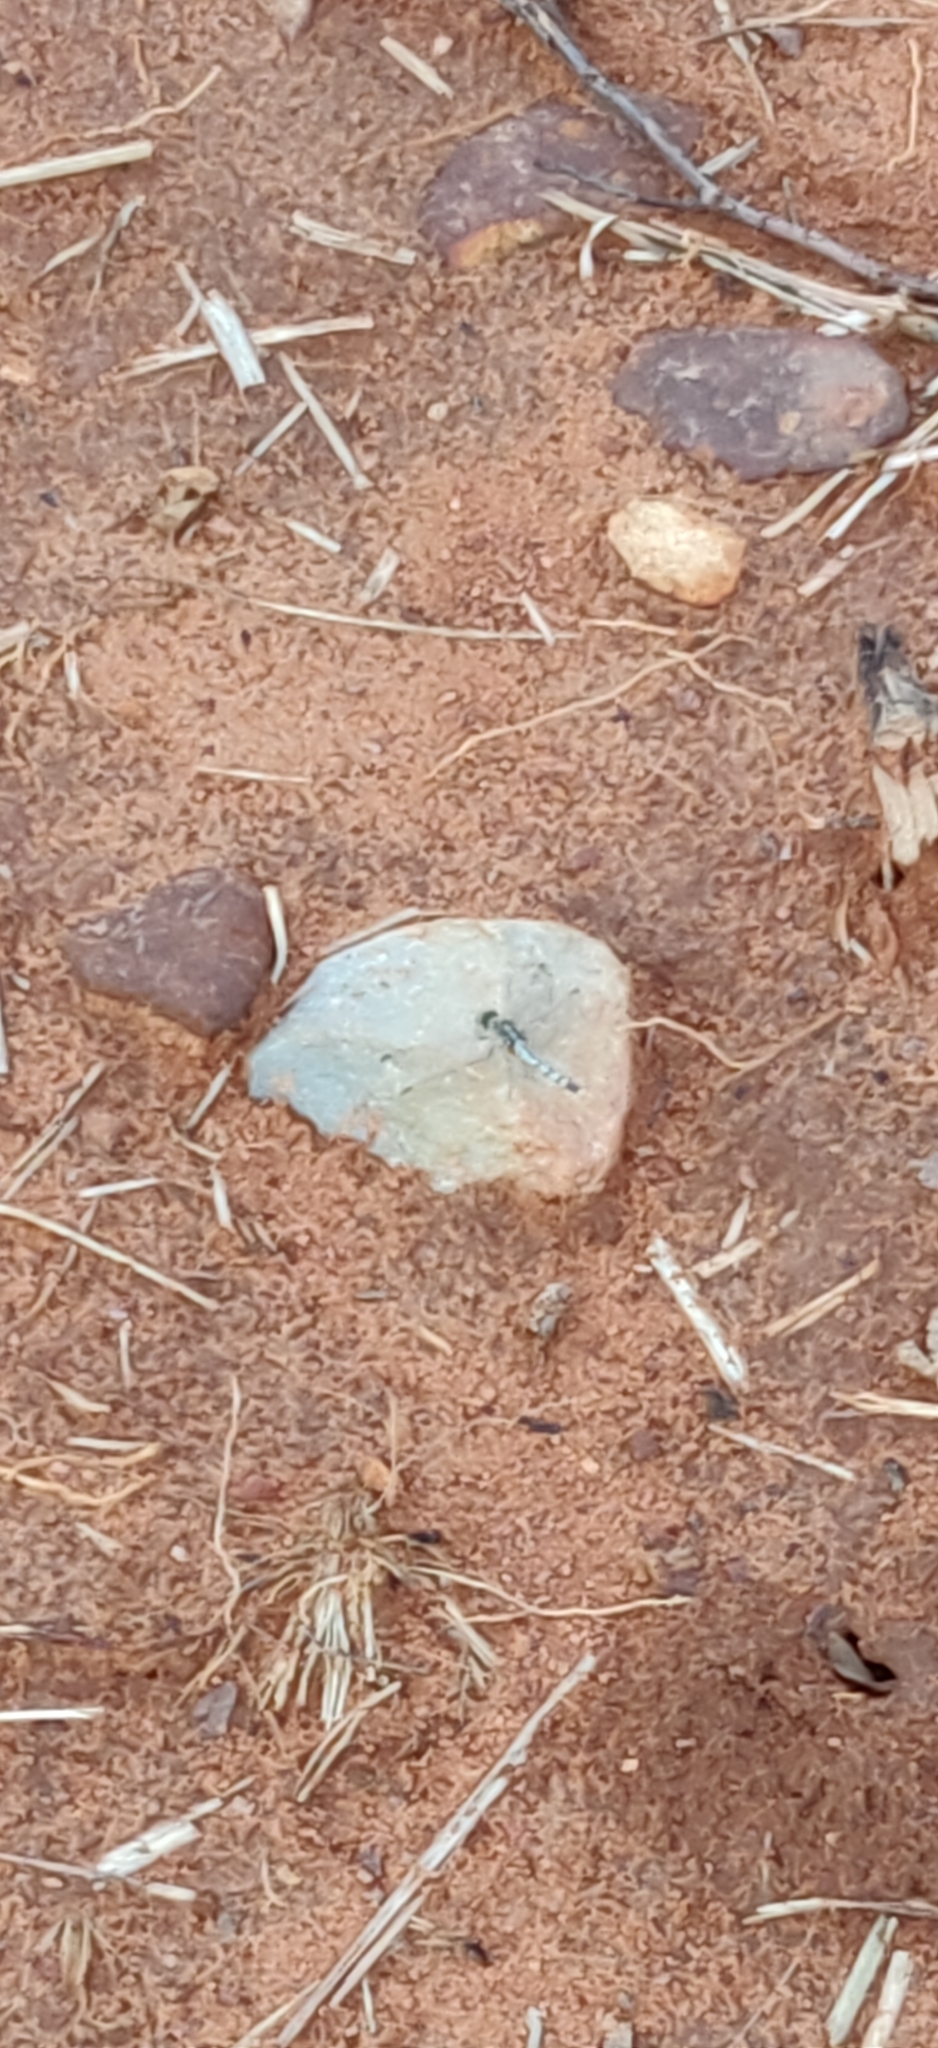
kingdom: Animalia
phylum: Arthropoda
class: Insecta
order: Odonata
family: Libellulidae
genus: Diplacodes
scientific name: Diplacodes trivialis
